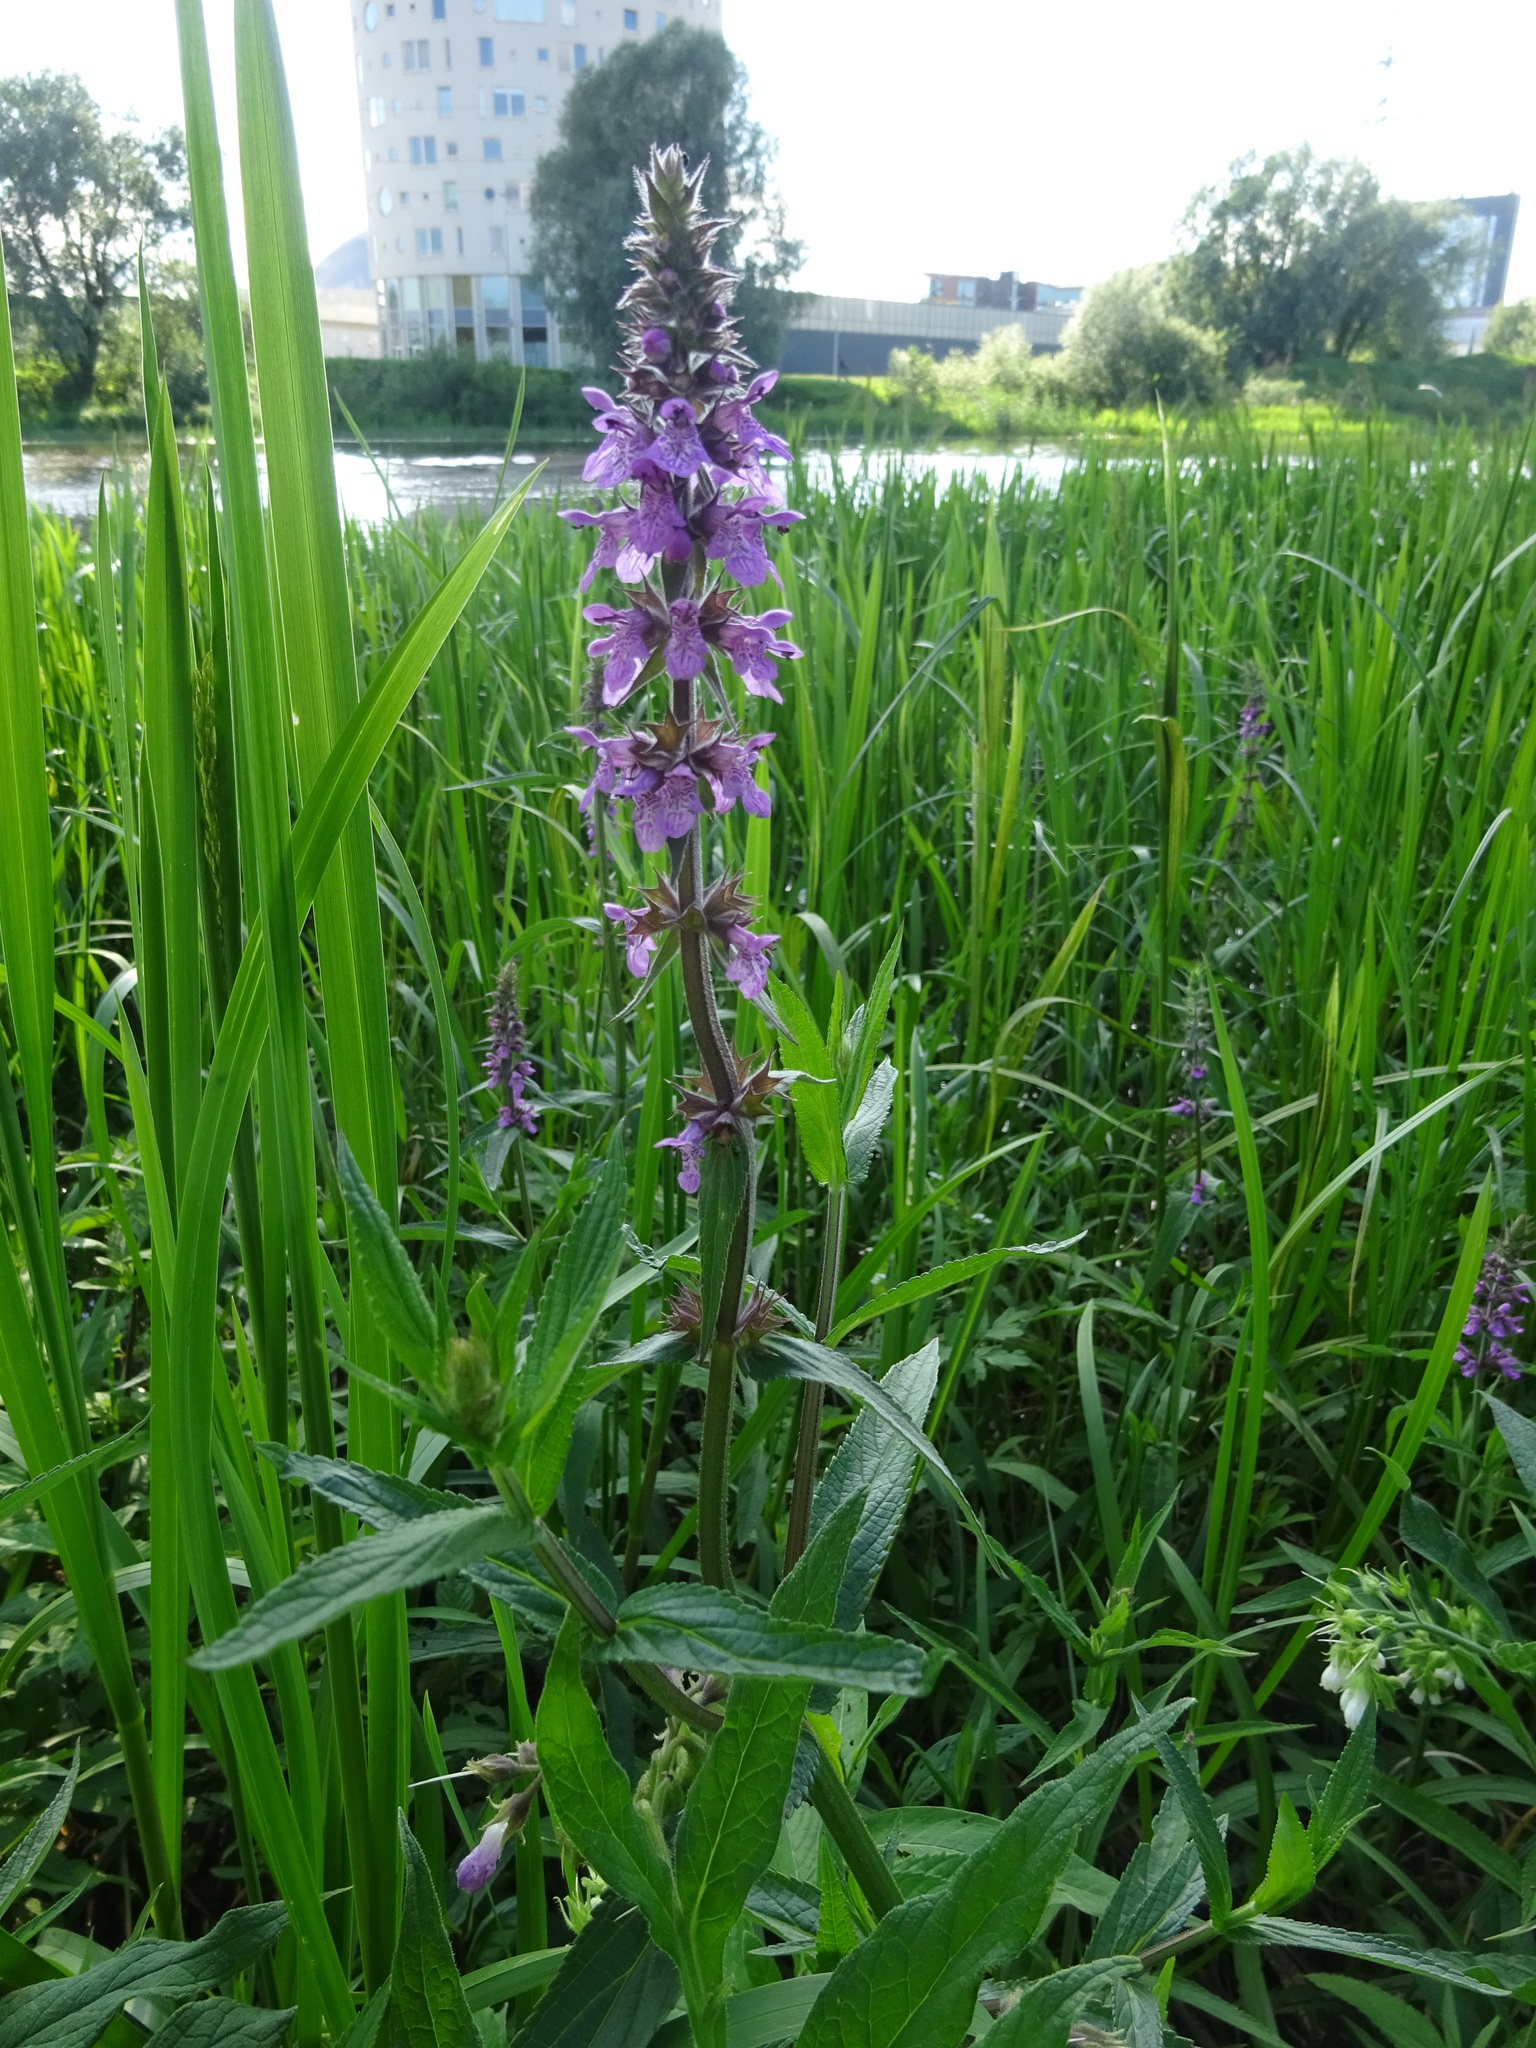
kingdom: Plantae
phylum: Tracheophyta
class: Magnoliopsida
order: Lamiales
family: Lamiaceae
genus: Stachys
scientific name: Stachys palustris
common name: Marsh woundwort
